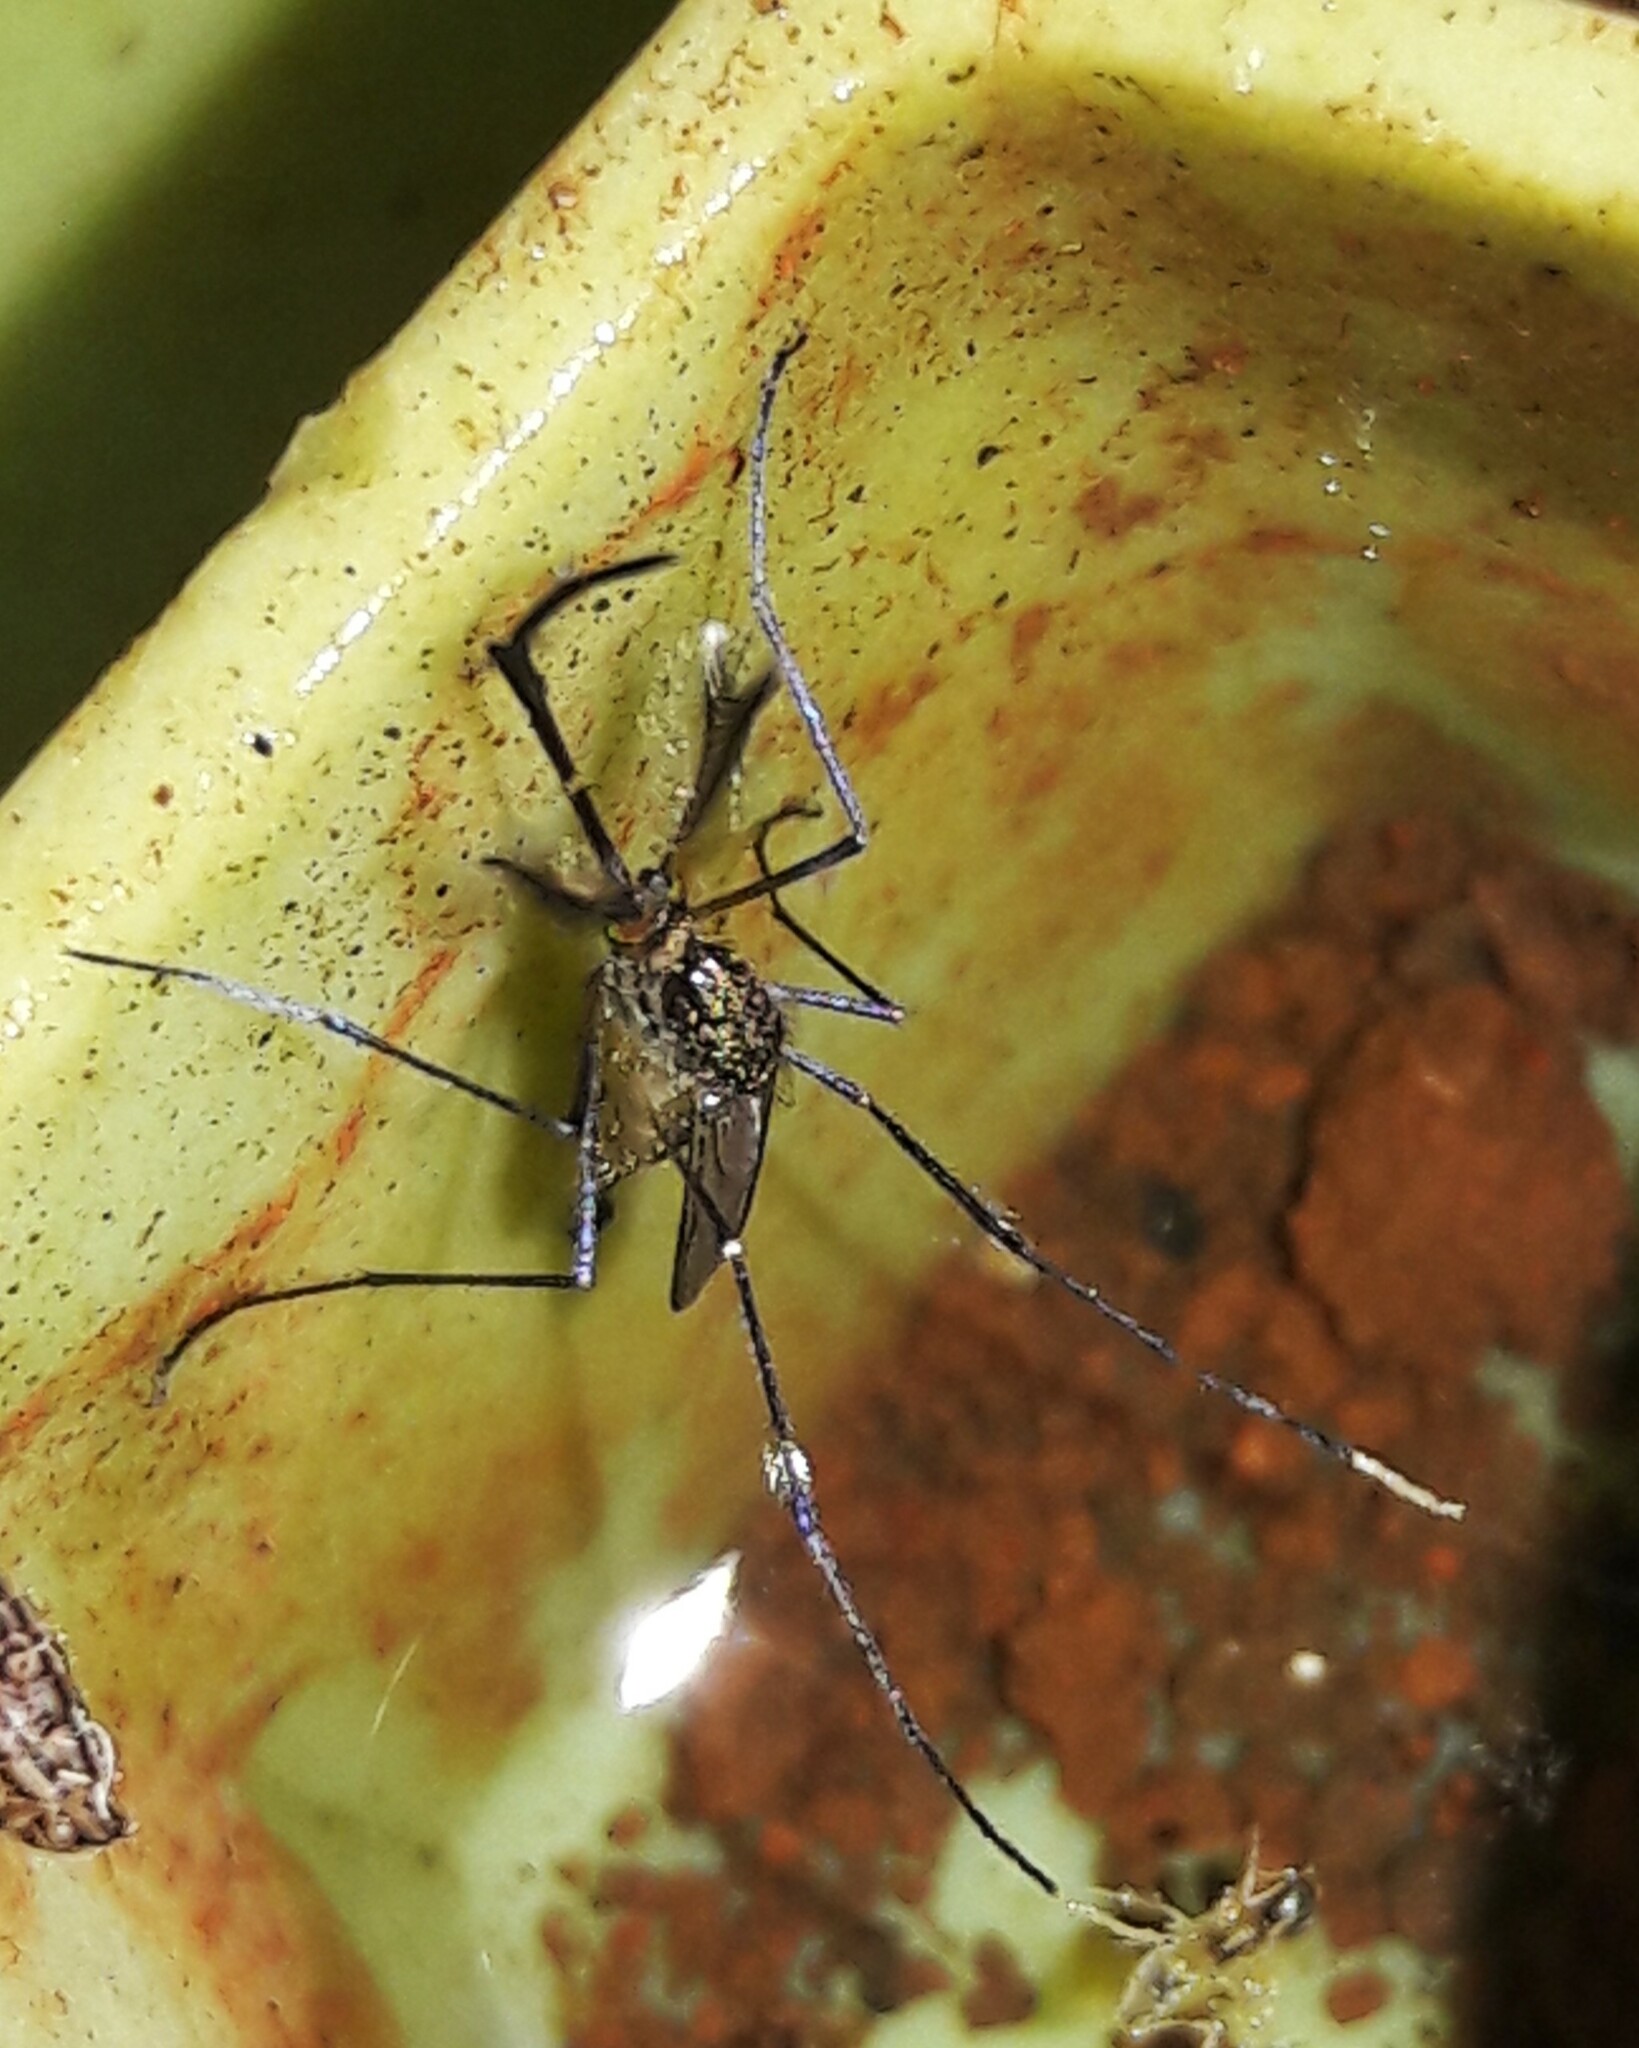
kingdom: Animalia
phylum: Arthropoda
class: Insecta
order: Diptera
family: Culicidae
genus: Psorophora
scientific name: Psorophora ferox
